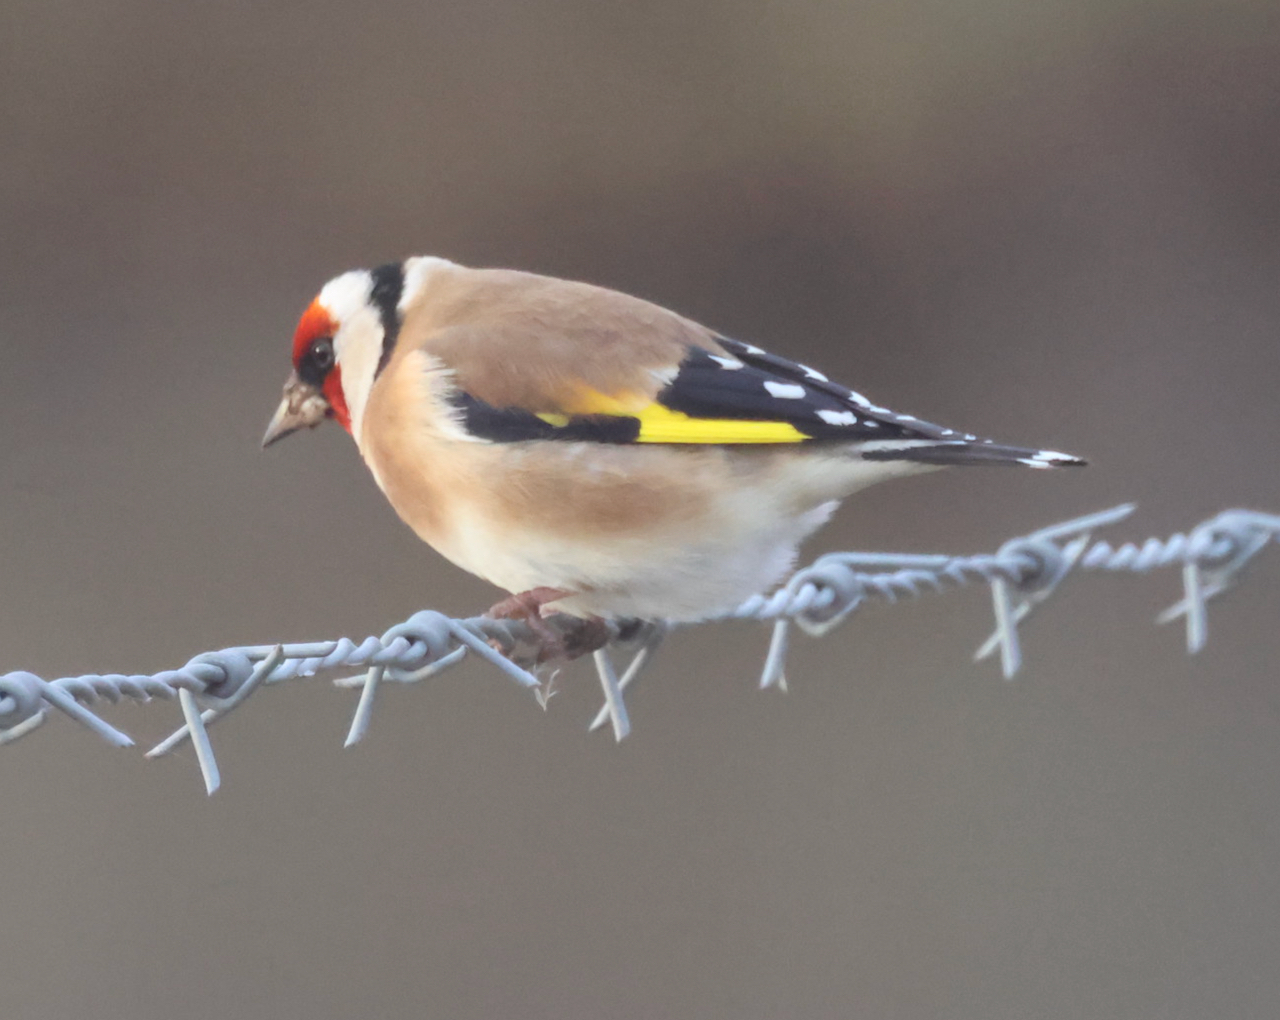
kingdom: Animalia
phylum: Chordata
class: Aves
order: Passeriformes
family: Fringillidae
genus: Carduelis
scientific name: Carduelis carduelis
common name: European goldfinch
